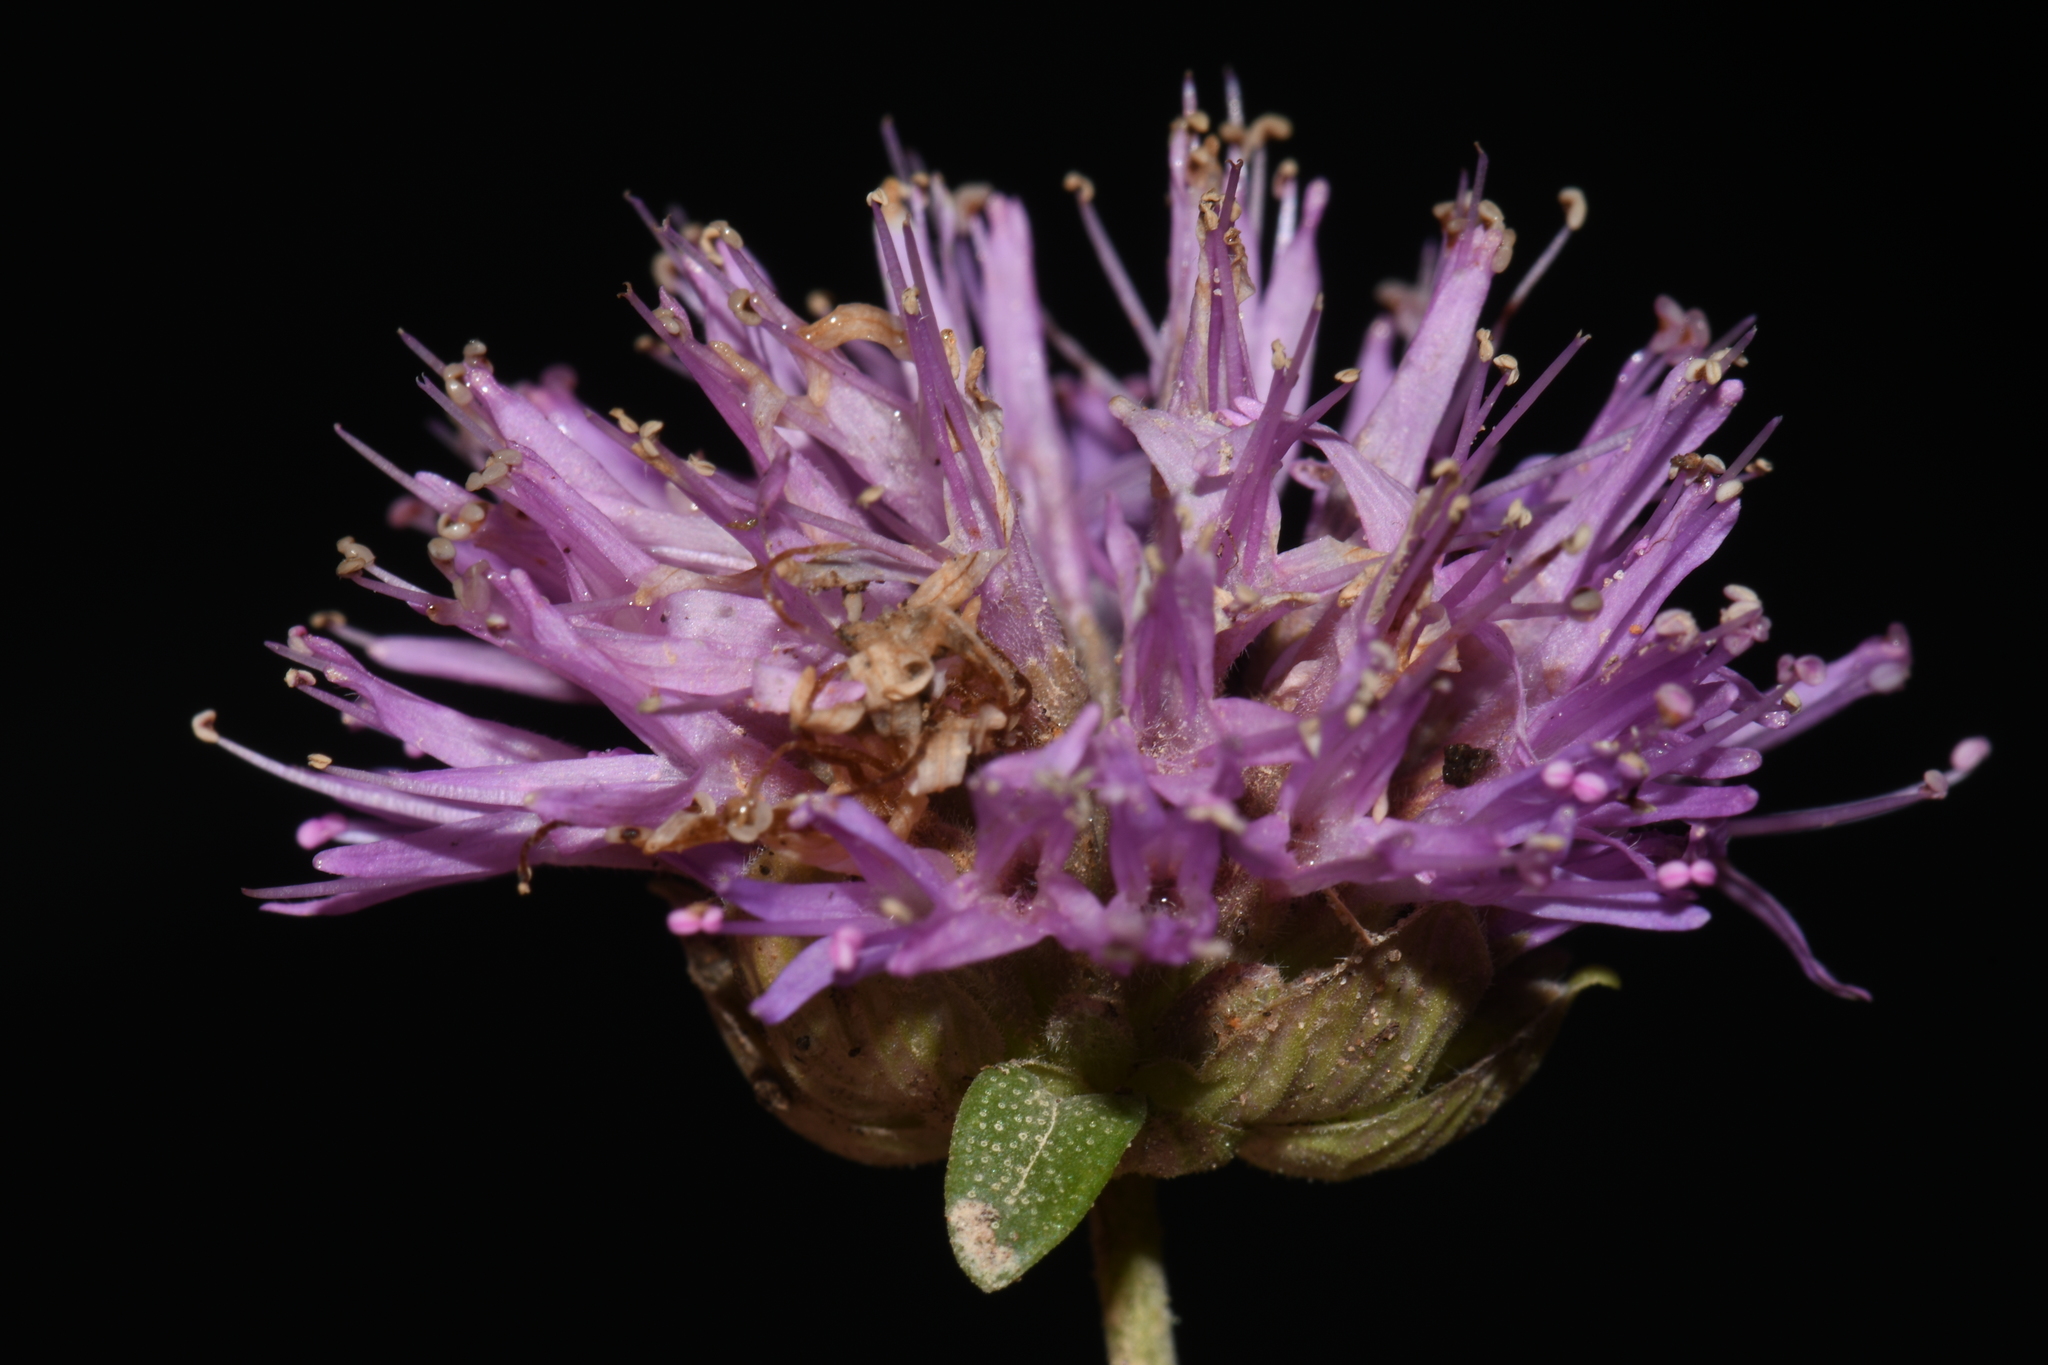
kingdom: Plantae
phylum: Tracheophyta
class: Magnoliopsida
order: Lamiales
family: Lamiaceae
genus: Monardella
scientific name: Monardella odoratissima
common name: Pacific monardella
